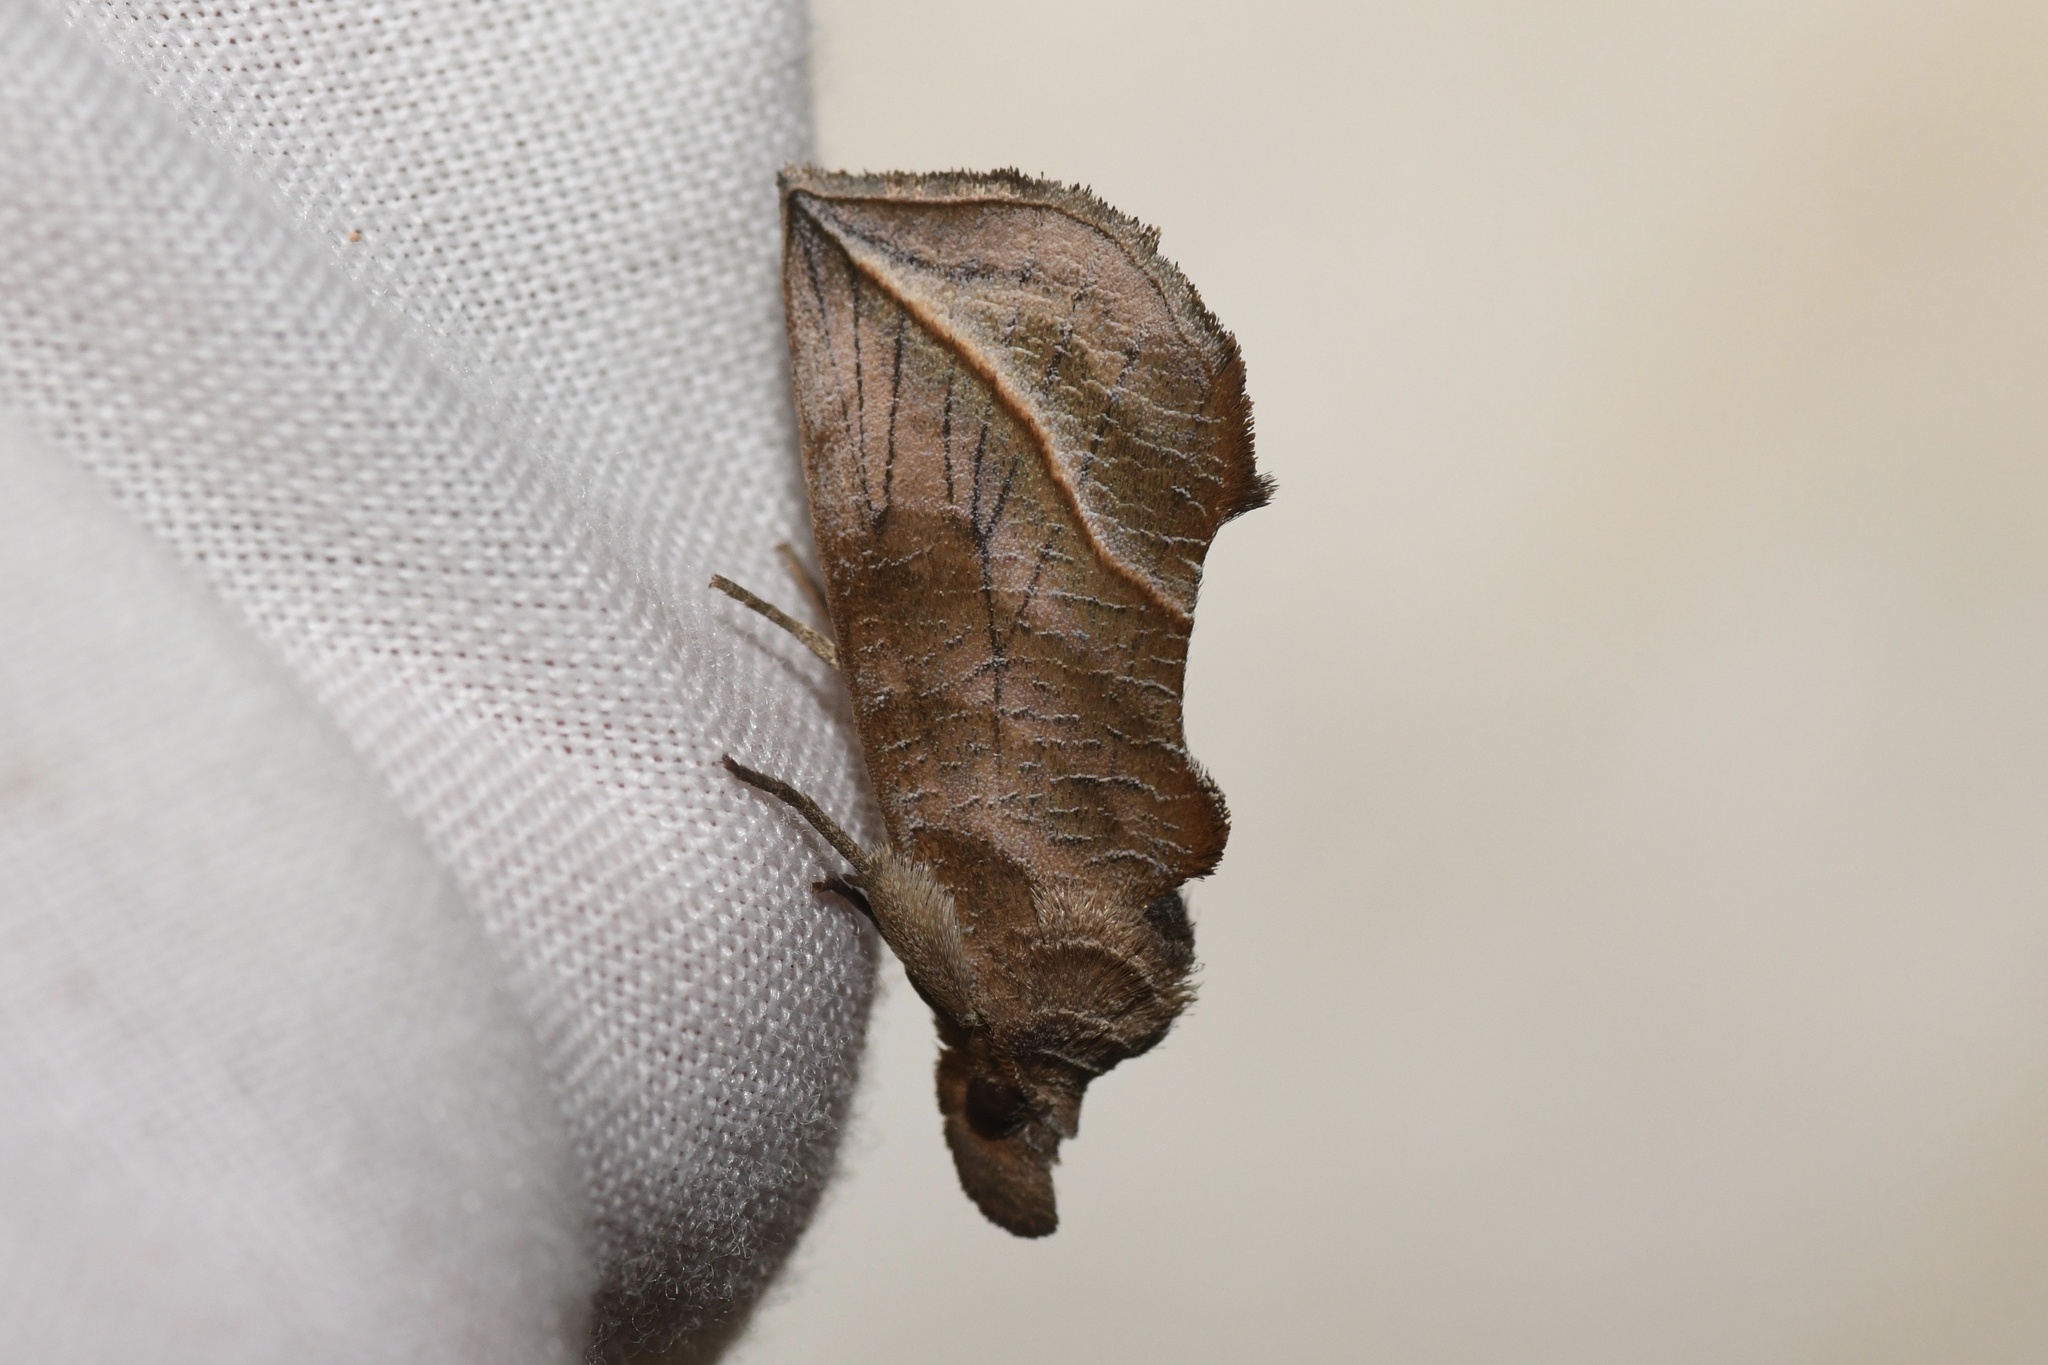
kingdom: Animalia
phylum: Arthropoda
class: Insecta
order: Lepidoptera
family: Erebidae
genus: Calyptra
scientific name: Calyptra canadensis
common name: Canadian owlet
